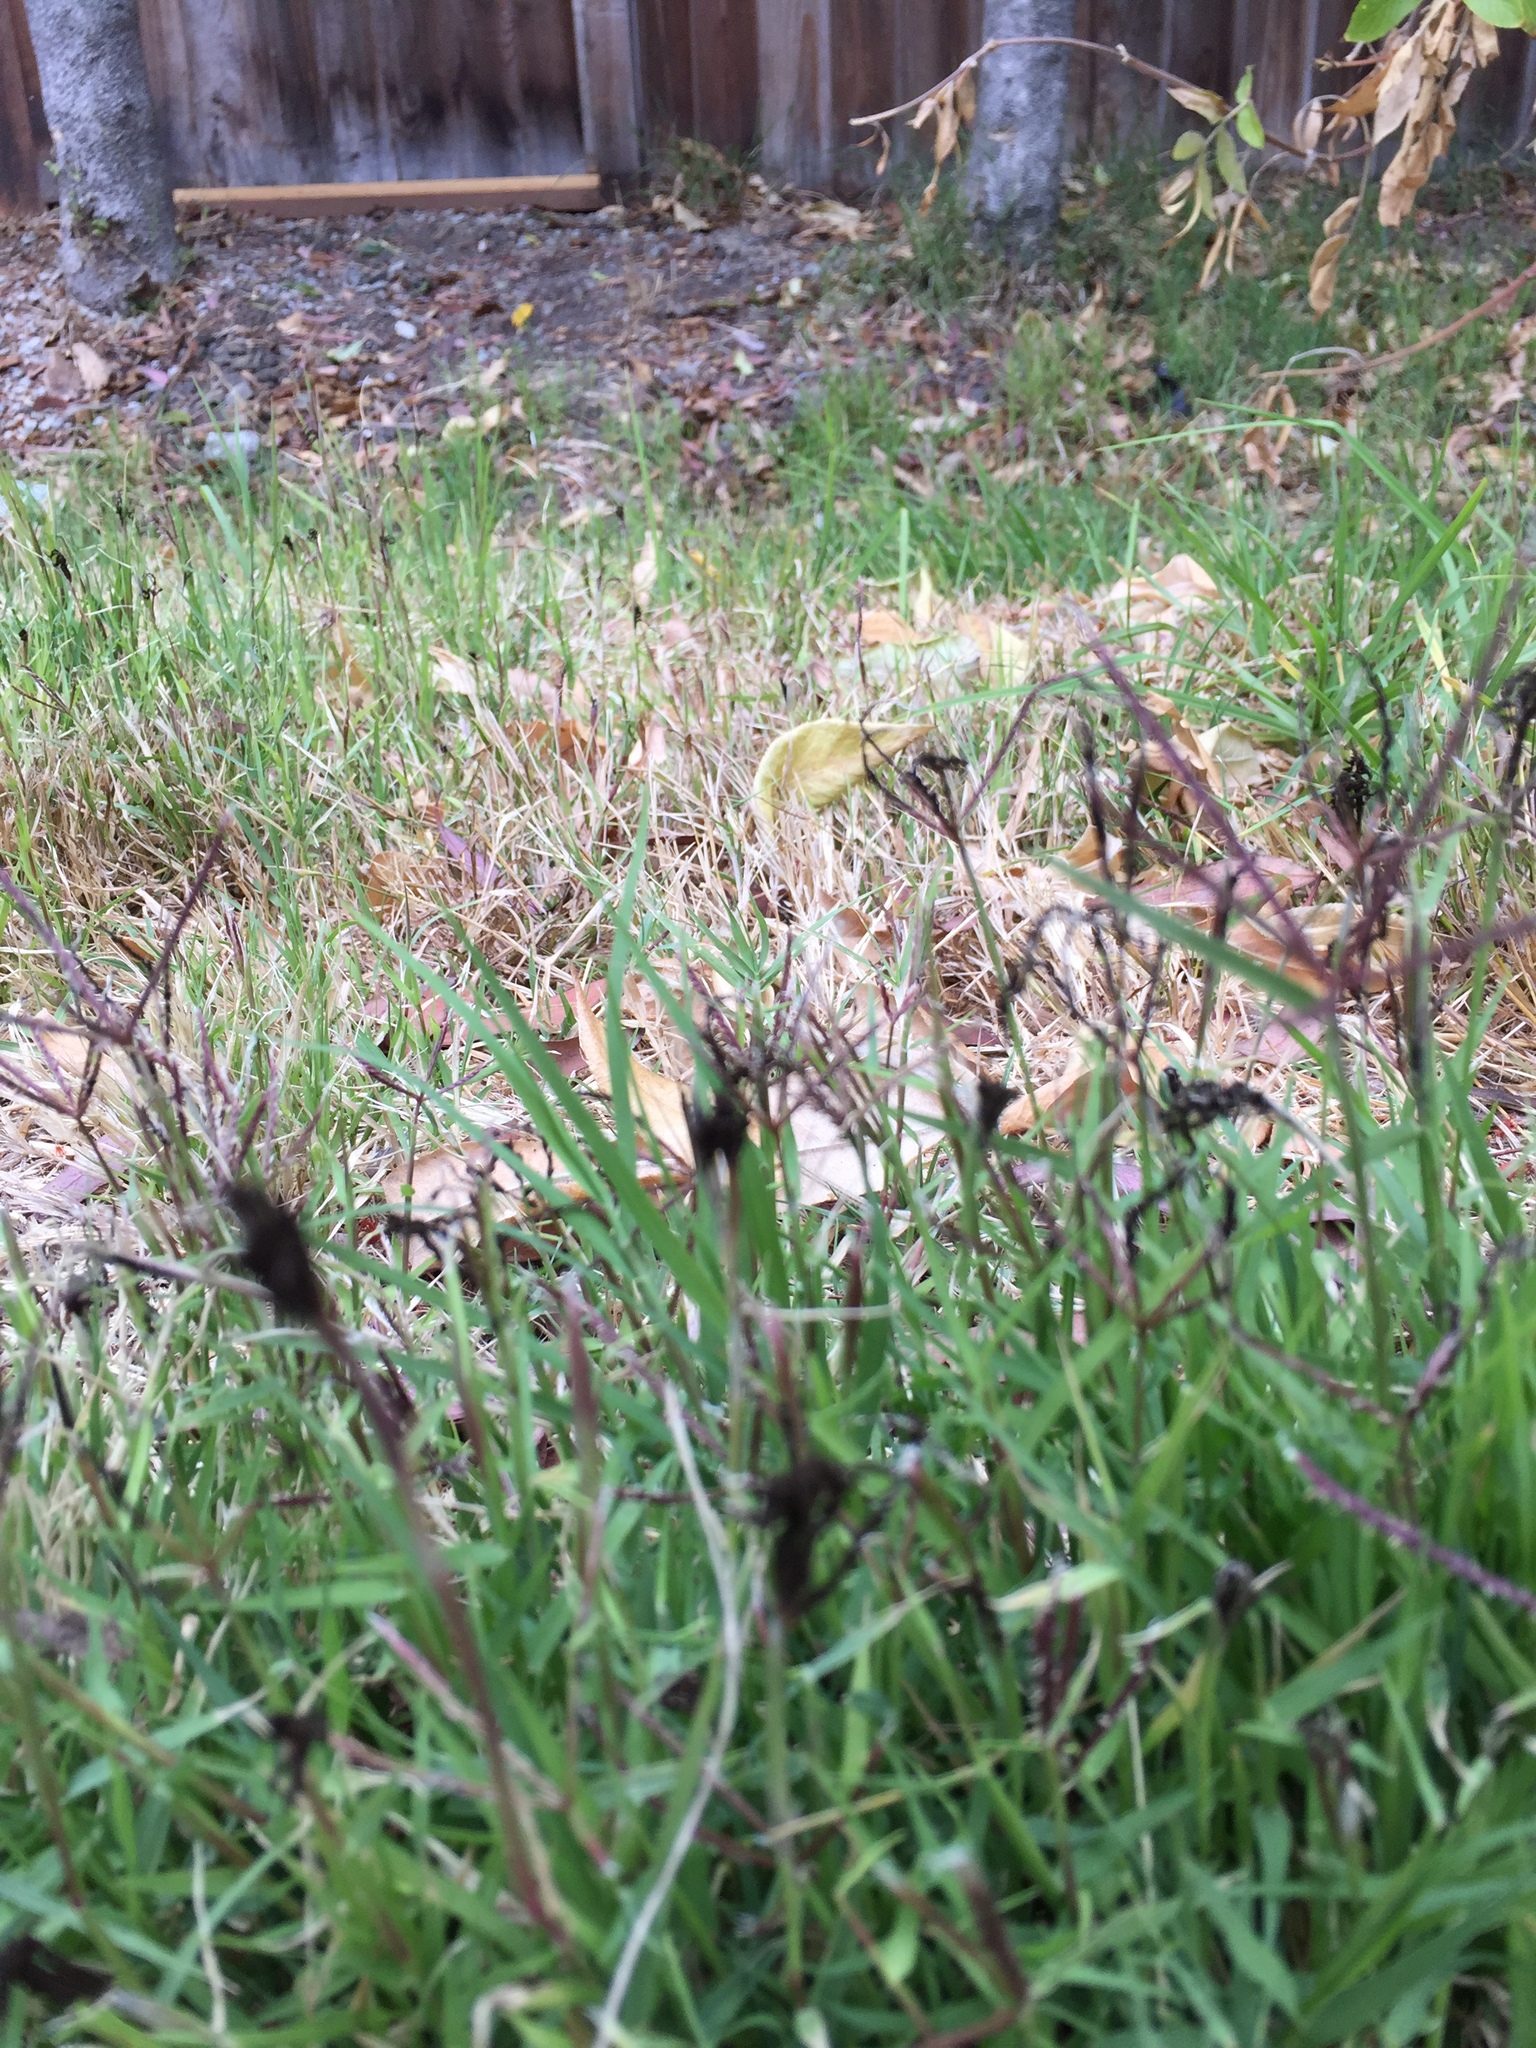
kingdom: Fungi
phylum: Basidiomycota
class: Ustilaginomycetes
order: Ustilaginales
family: Ustilaginaceae
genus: Ustilago
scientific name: Ustilago cynodontis
